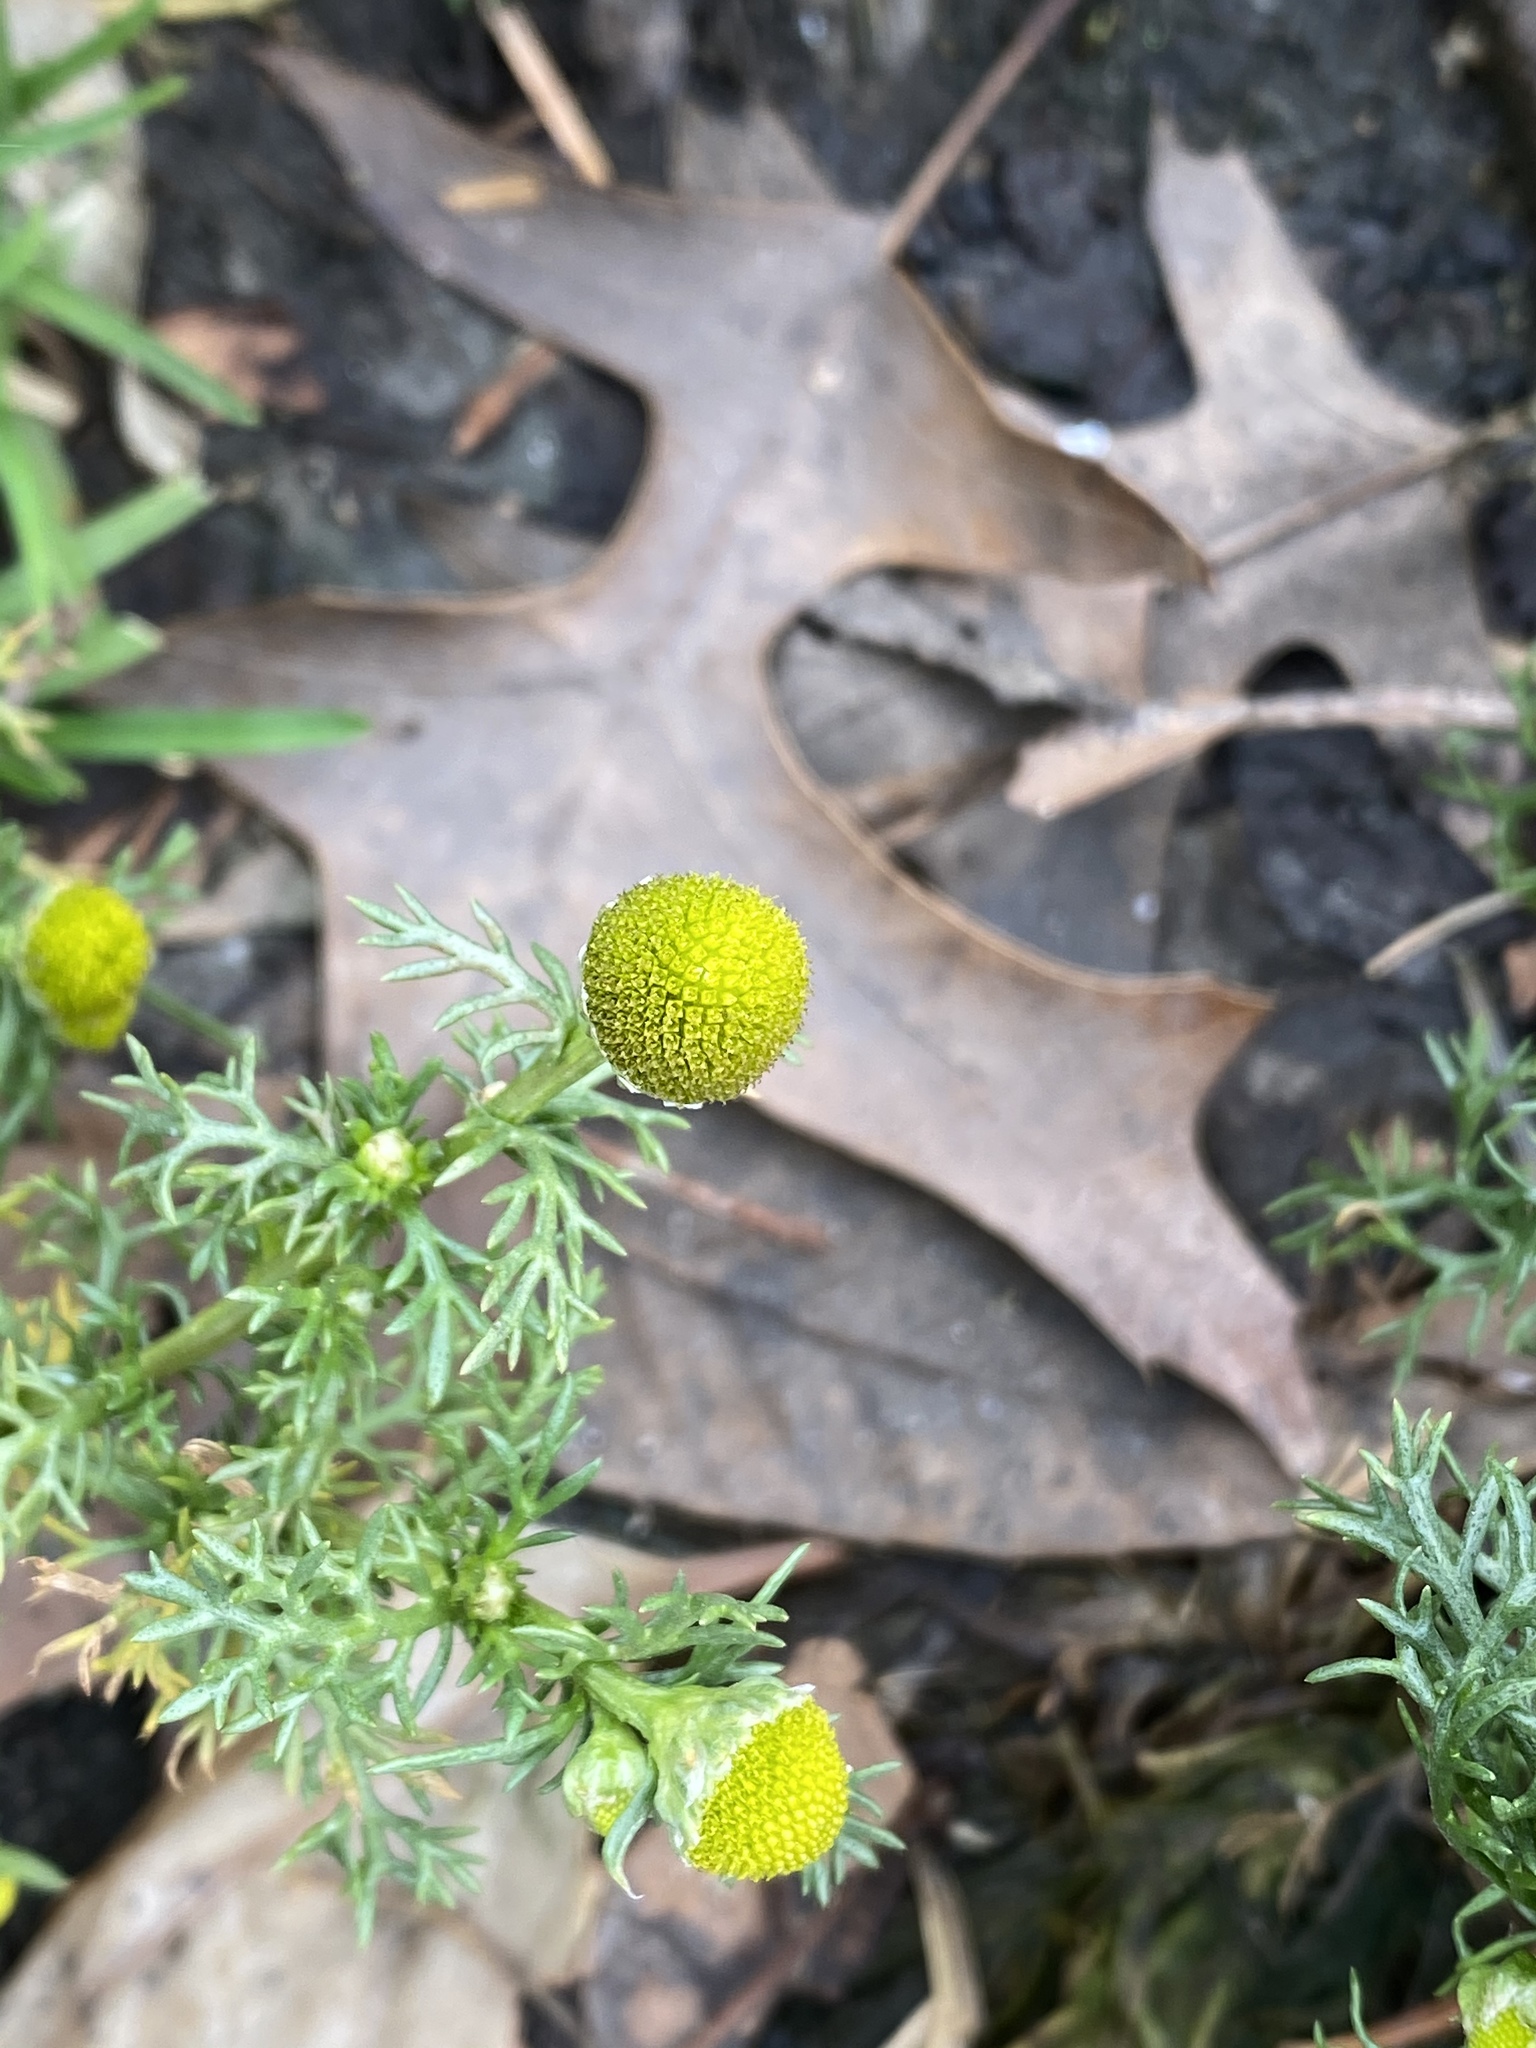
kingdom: Plantae
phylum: Tracheophyta
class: Magnoliopsida
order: Asterales
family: Asteraceae
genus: Matricaria
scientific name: Matricaria discoidea
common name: Disc mayweed
